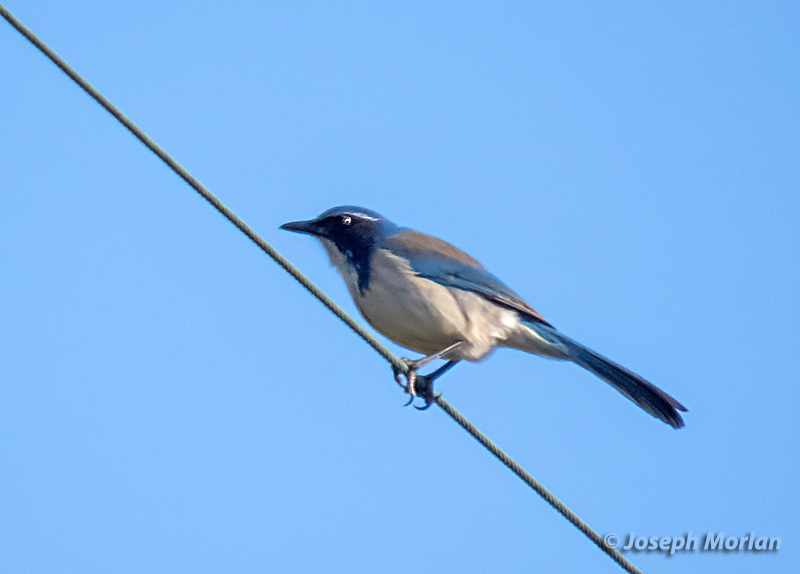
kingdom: Animalia
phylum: Chordata
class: Aves
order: Passeriformes
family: Corvidae
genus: Aphelocoma
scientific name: Aphelocoma californica
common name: California scrub-jay
